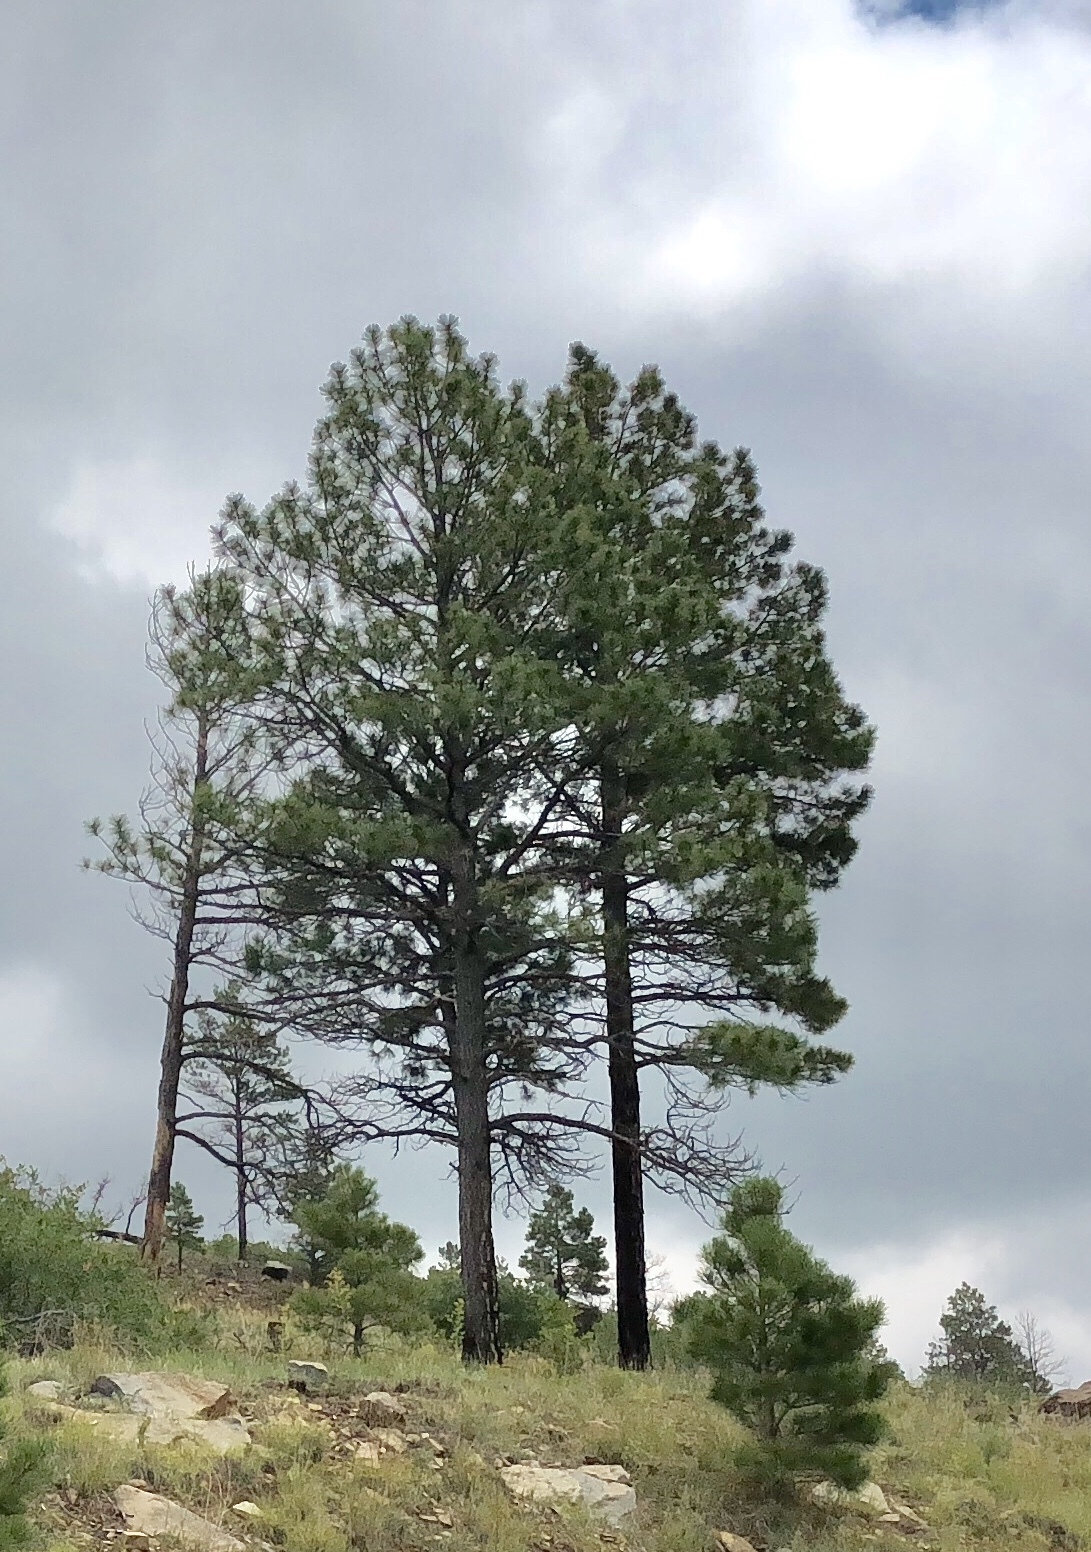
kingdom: Plantae
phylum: Tracheophyta
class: Pinopsida
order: Pinales
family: Pinaceae
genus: Pinus
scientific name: Pinus ponderosa
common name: Western yellow-pine
